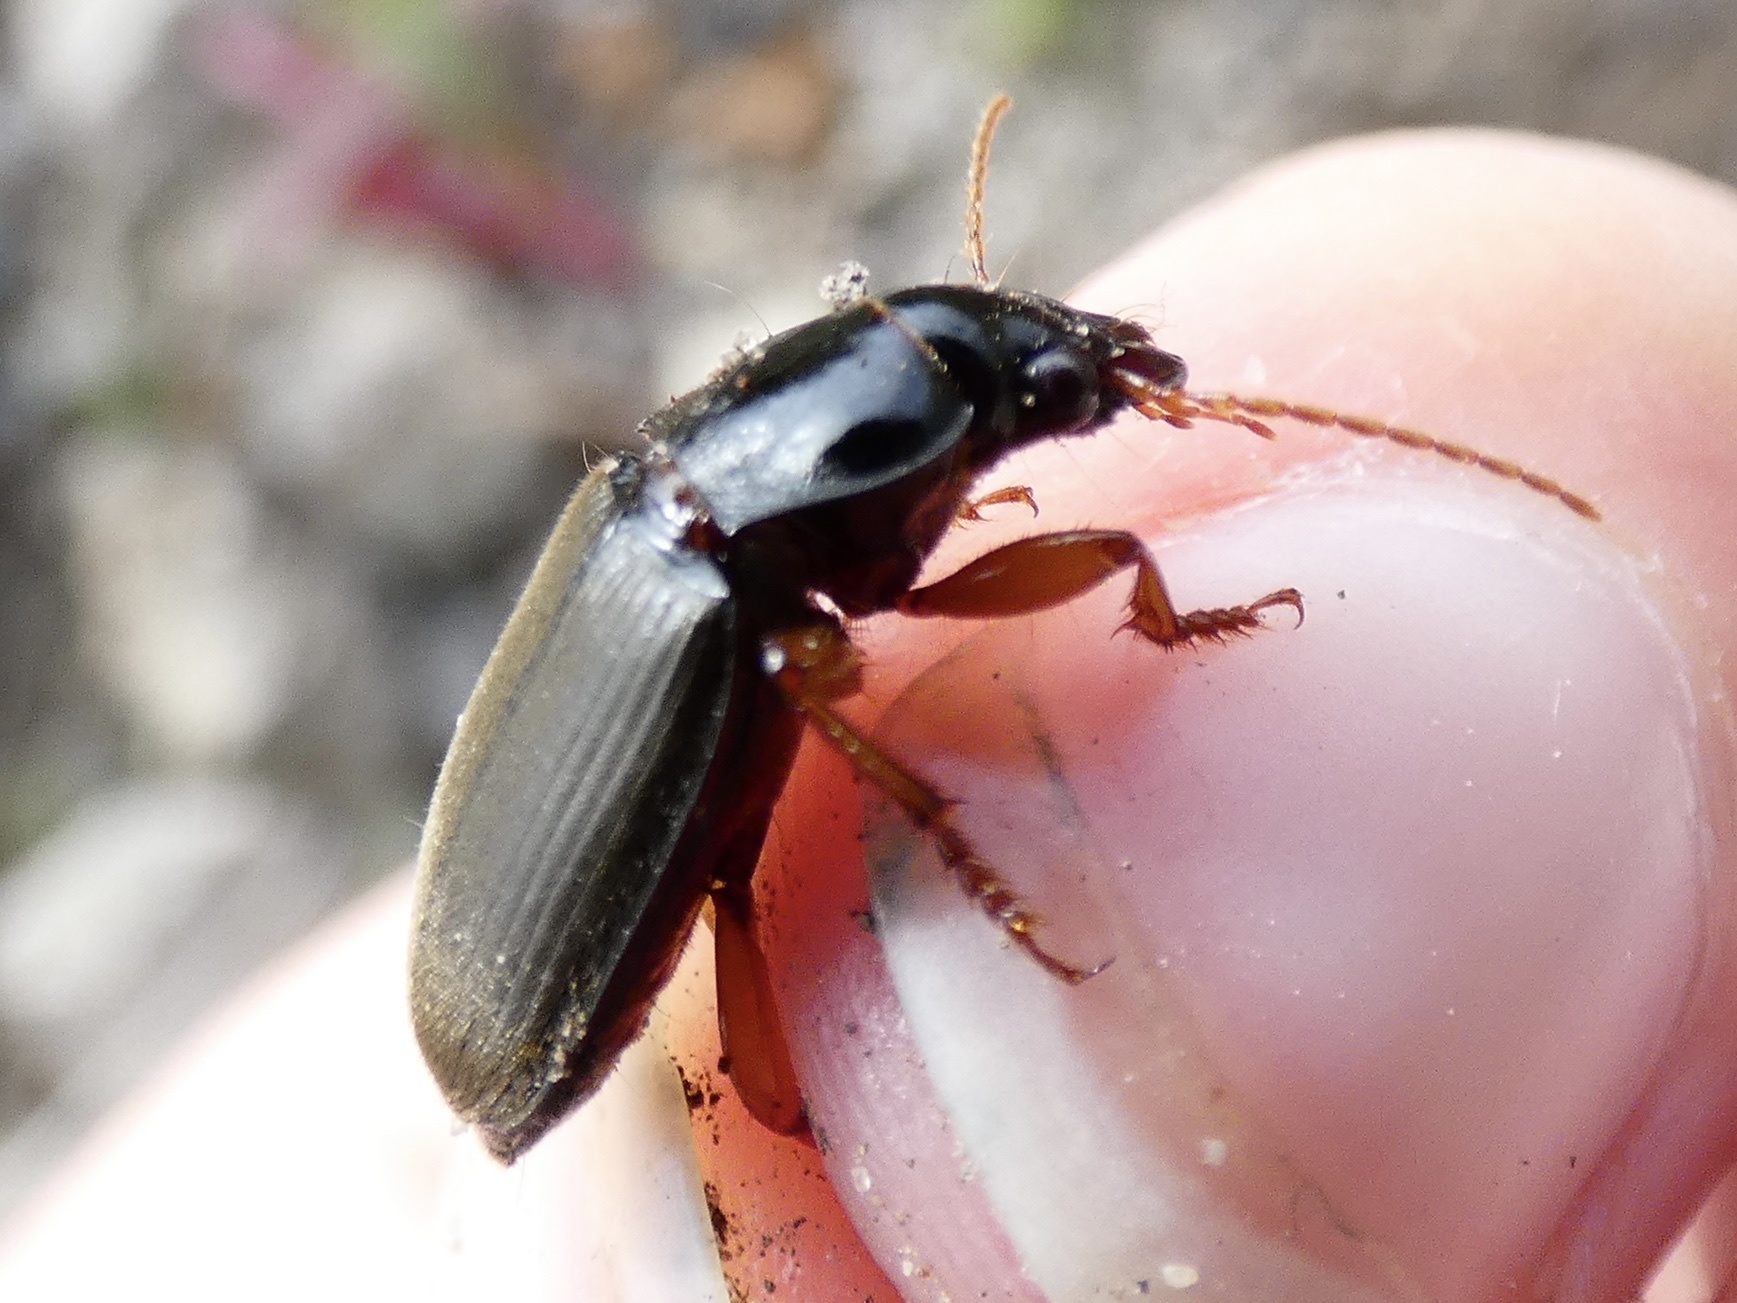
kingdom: Animalia
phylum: Arthropoda
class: Insecta
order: Coleoptera
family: Carabidae
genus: Harpalus
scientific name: Harpalus rufipes
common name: Strawberry harp ground beetle
